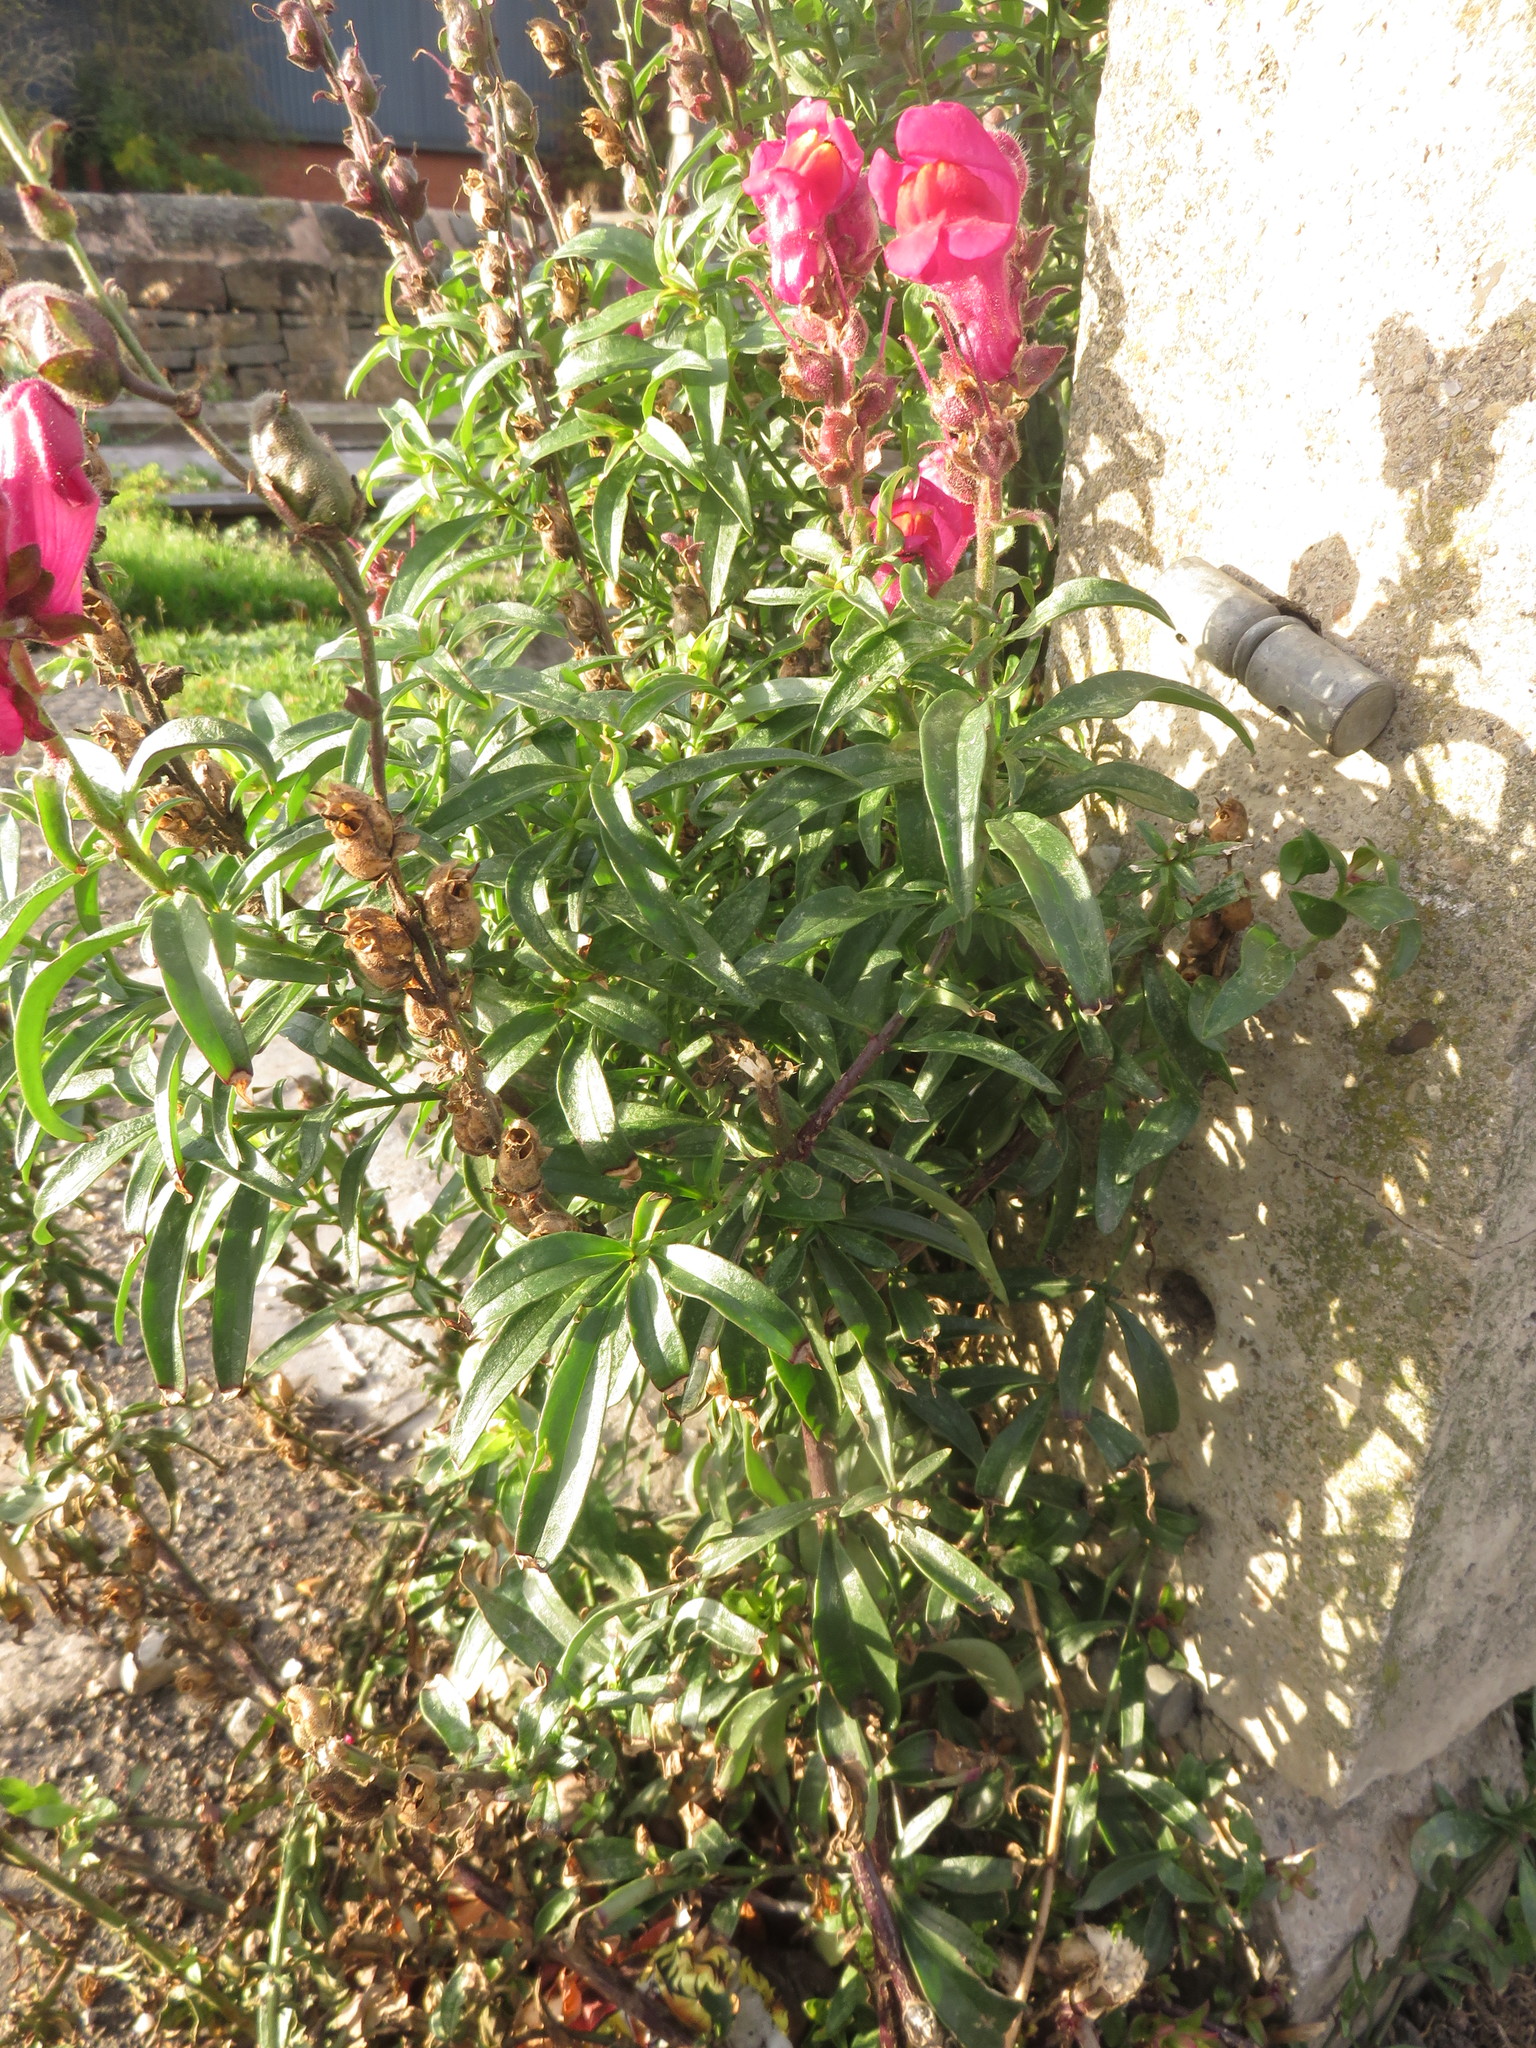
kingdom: Plantae
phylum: Tracheophyta
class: Magnoliopsida
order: Lamiales
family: Plantaginaceae
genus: Antirrhinum
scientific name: Antirrhinum majus
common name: Snapdragon
